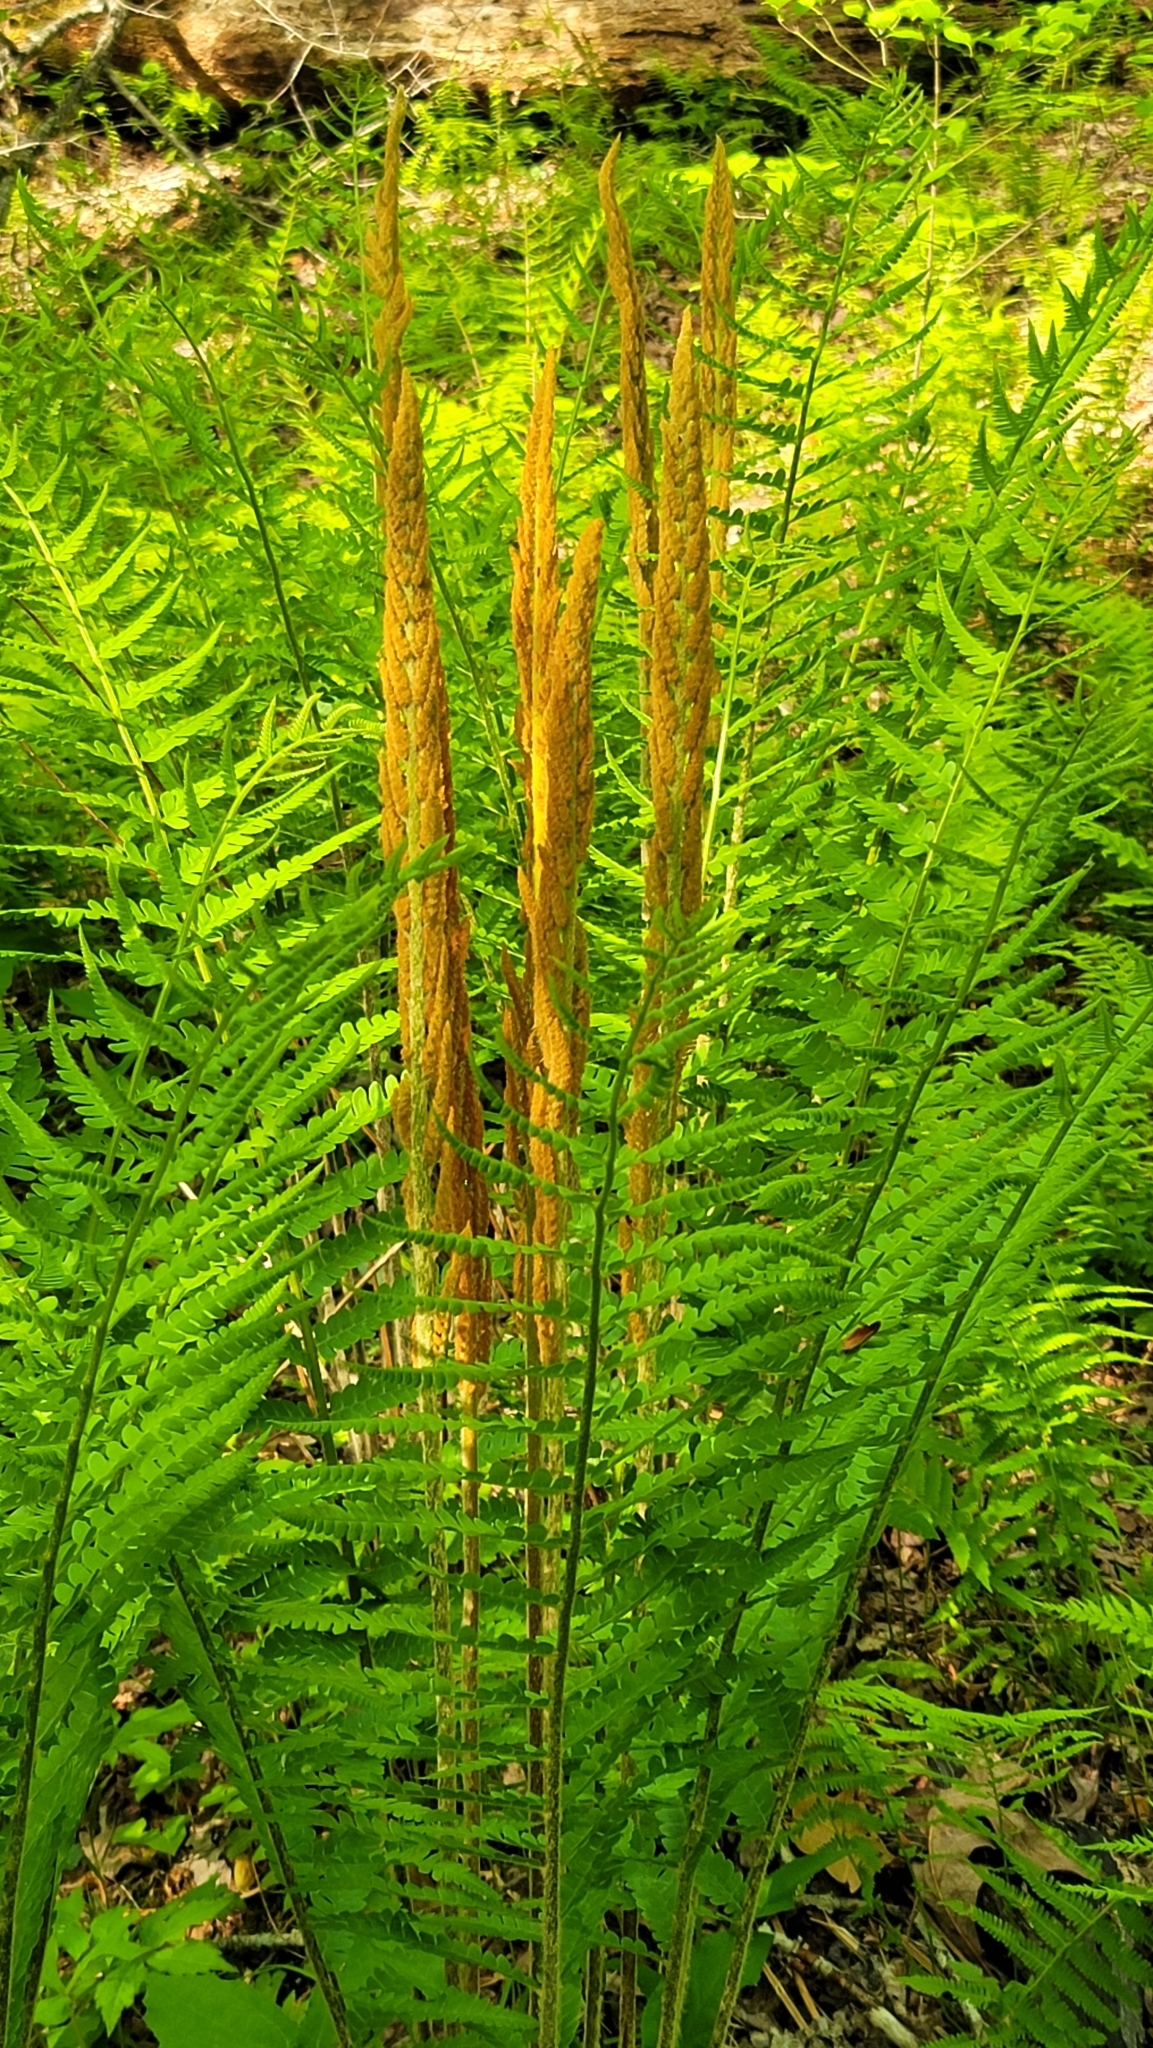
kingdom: Plantae
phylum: Tracheophyta
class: Polypodiopsida
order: Osmundales
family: Osmundaceae
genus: Osmundastrum
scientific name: Osmundastrum cinnamomeum
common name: Cinnamon fern
